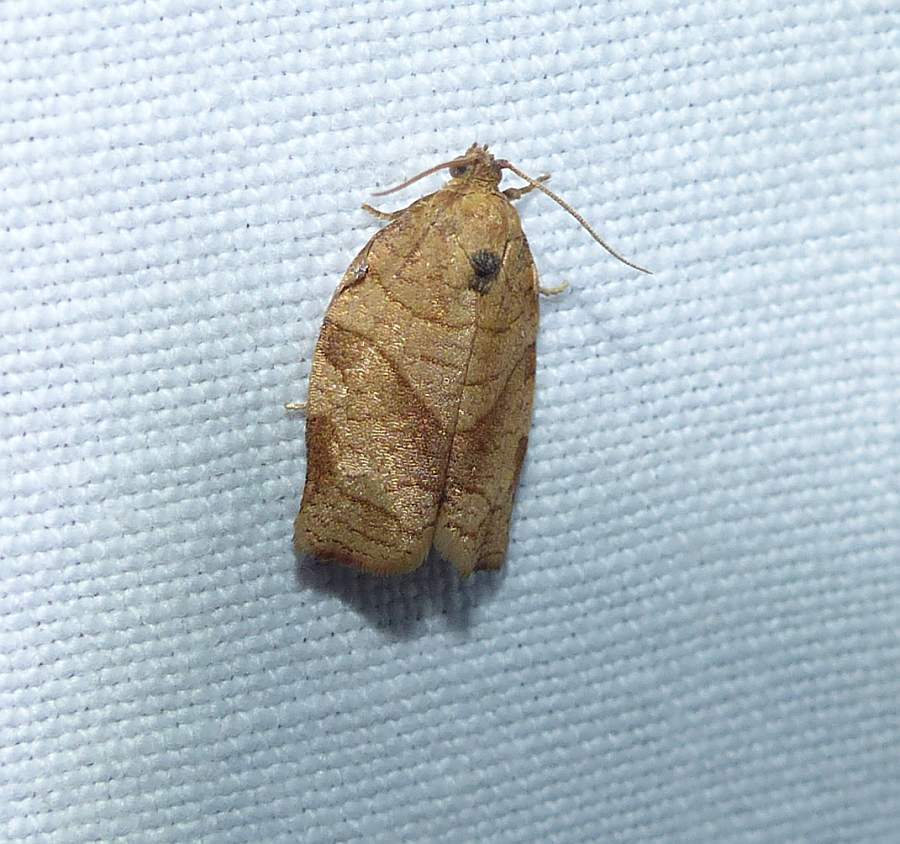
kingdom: Animalia
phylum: Arthropoda
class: Insecta
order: Lepidoptera
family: Tortricidae
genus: Choristoneura
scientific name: Choristoneura rosaceana
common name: Oblique-banded leafroller moth
